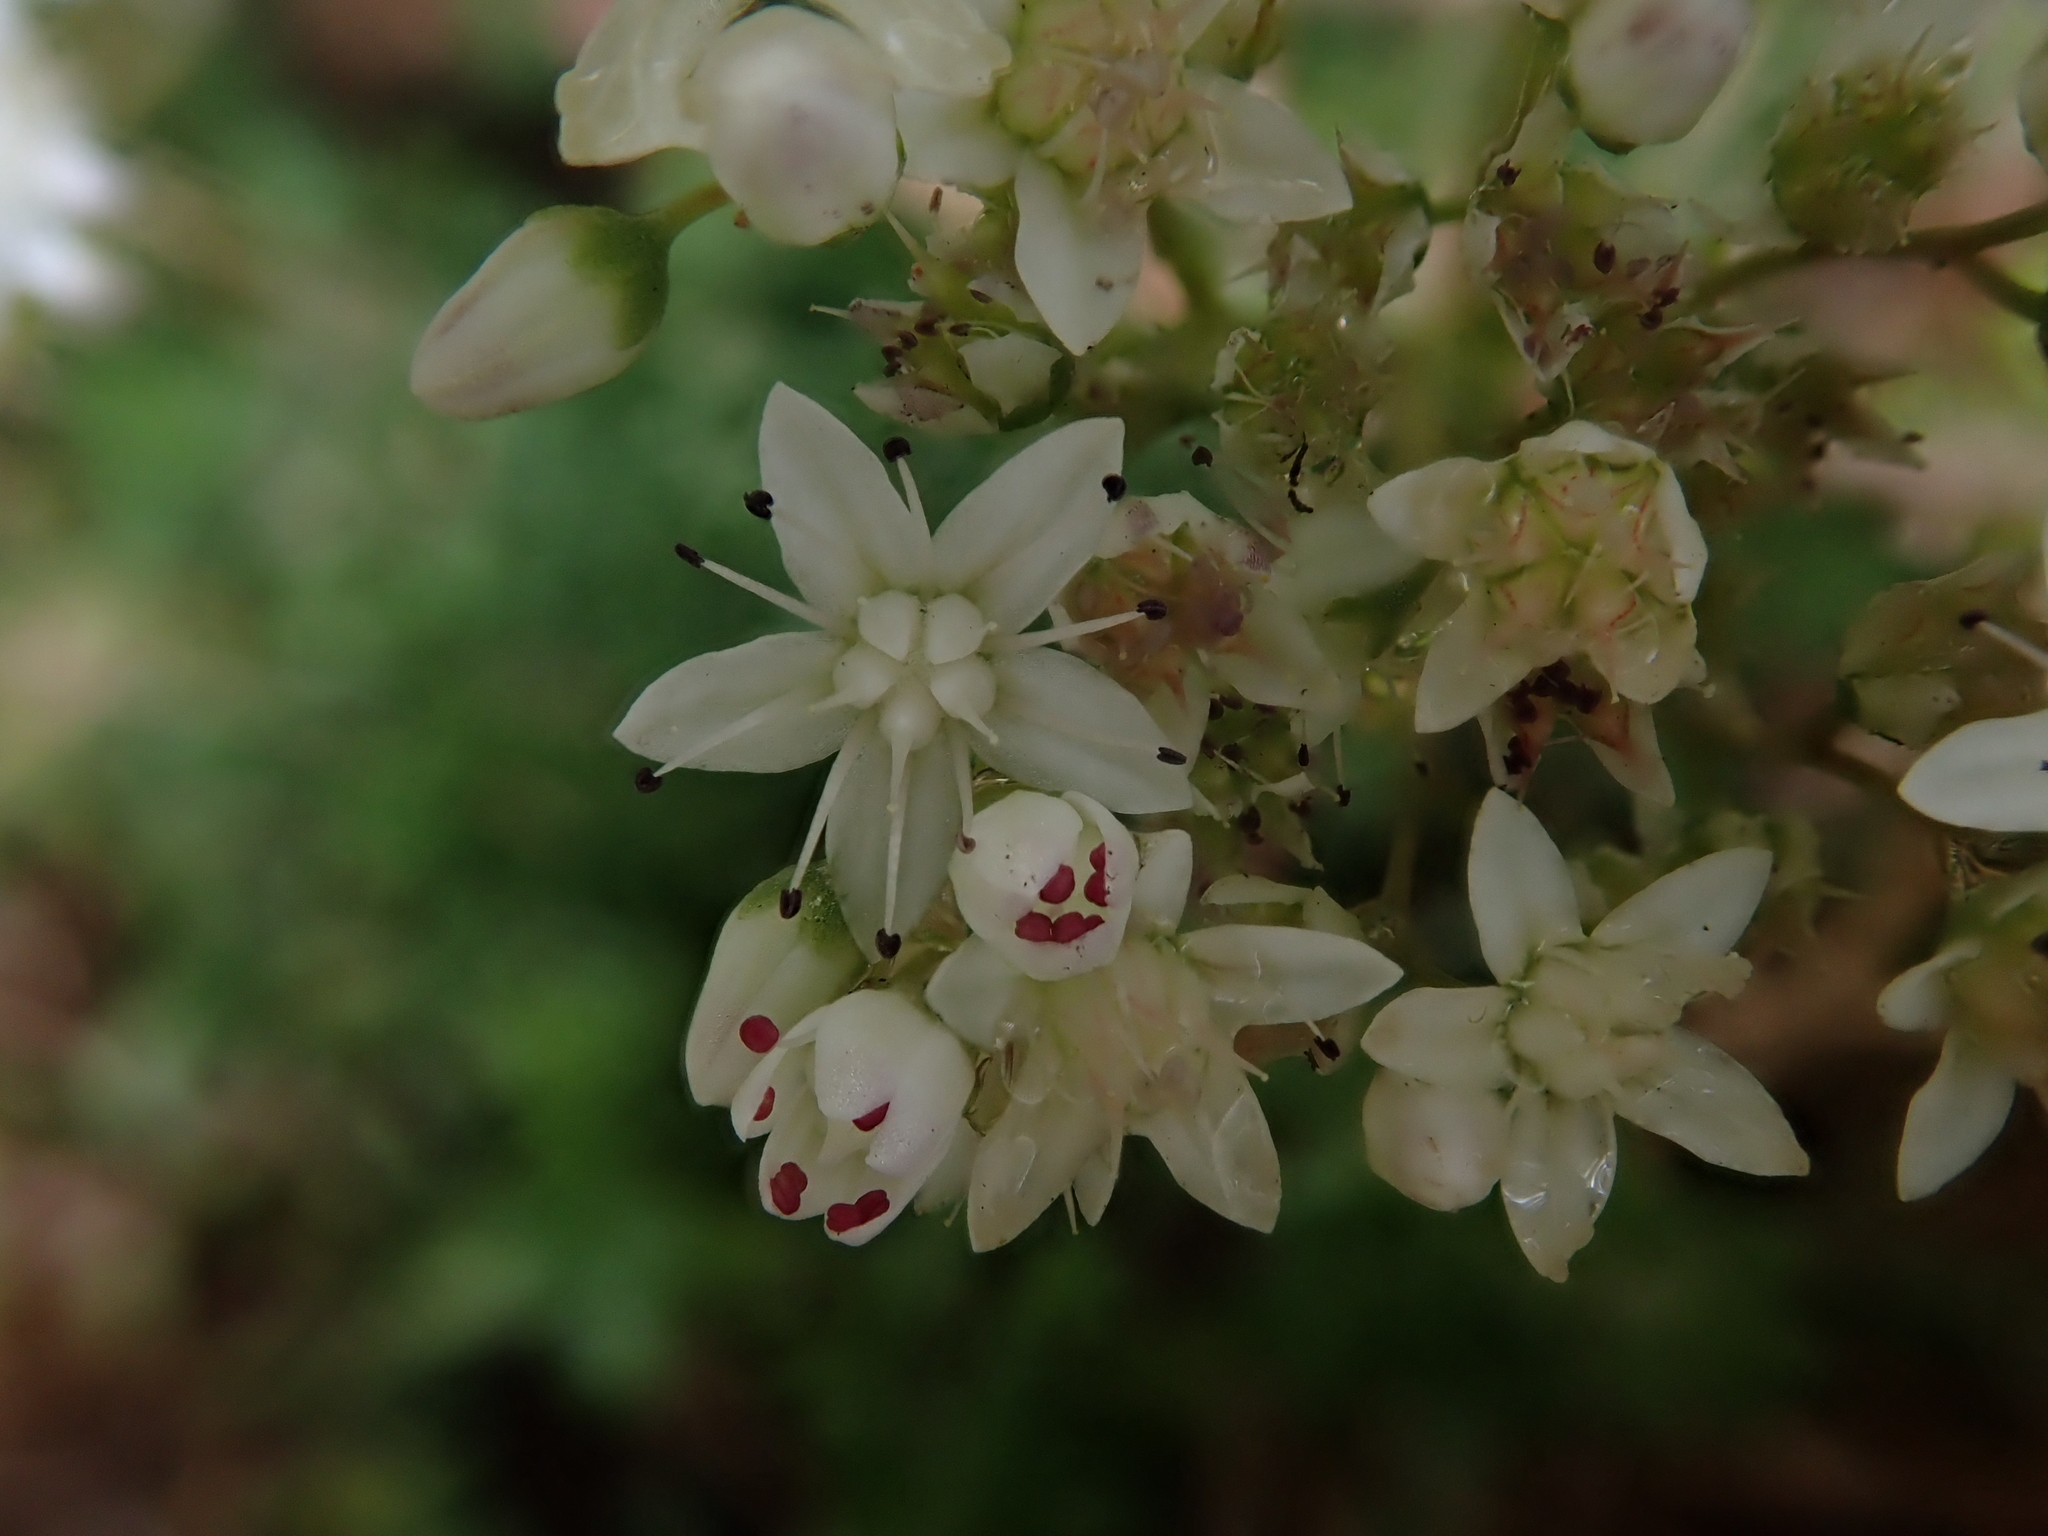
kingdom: Plantae
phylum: Tracheophyta
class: Magnoliopsida
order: Saxifragales
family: Crassulaceae
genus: Sedum
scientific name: Sedum album
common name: White stonecrop
